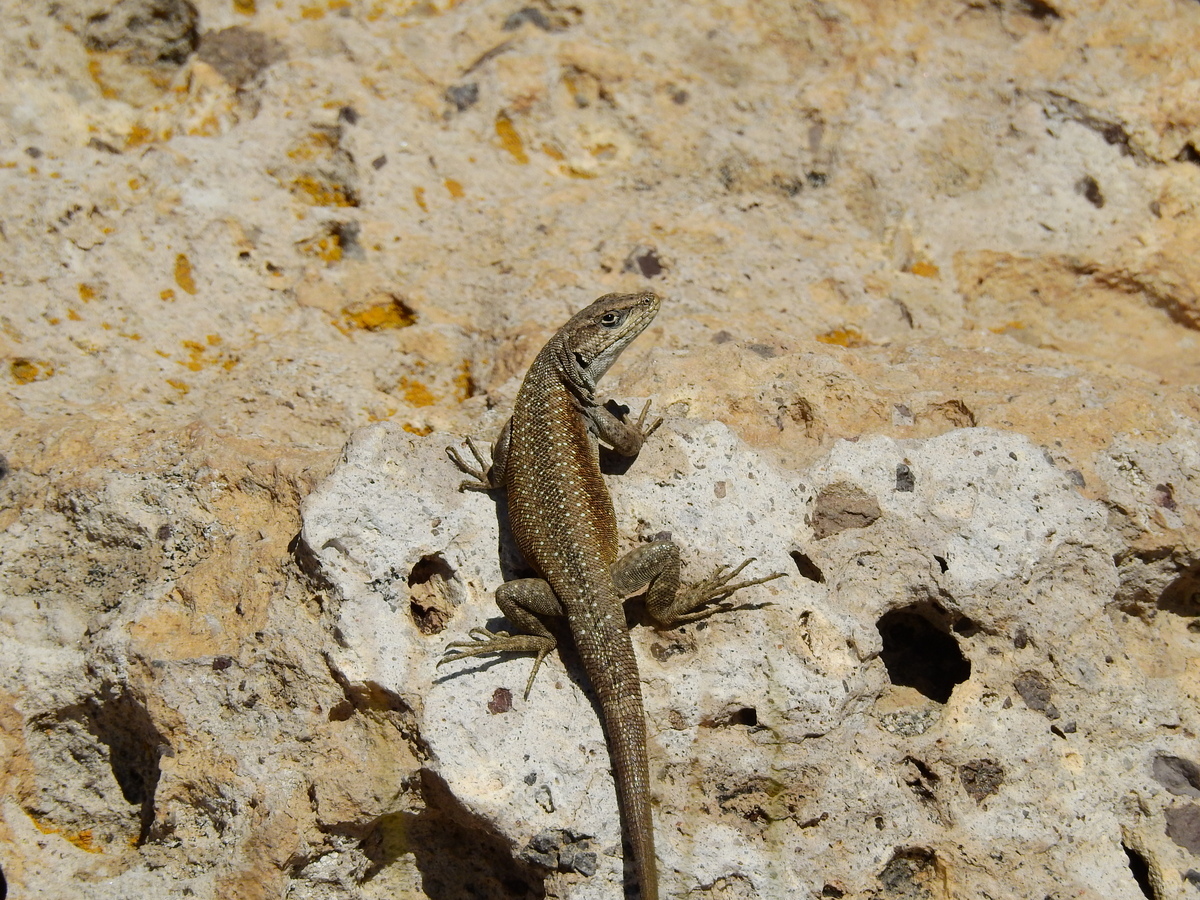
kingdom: Animalia
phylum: Chordata
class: Squamata
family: Liolaemidae
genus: Liolaemus
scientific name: Liolaemus smaug
